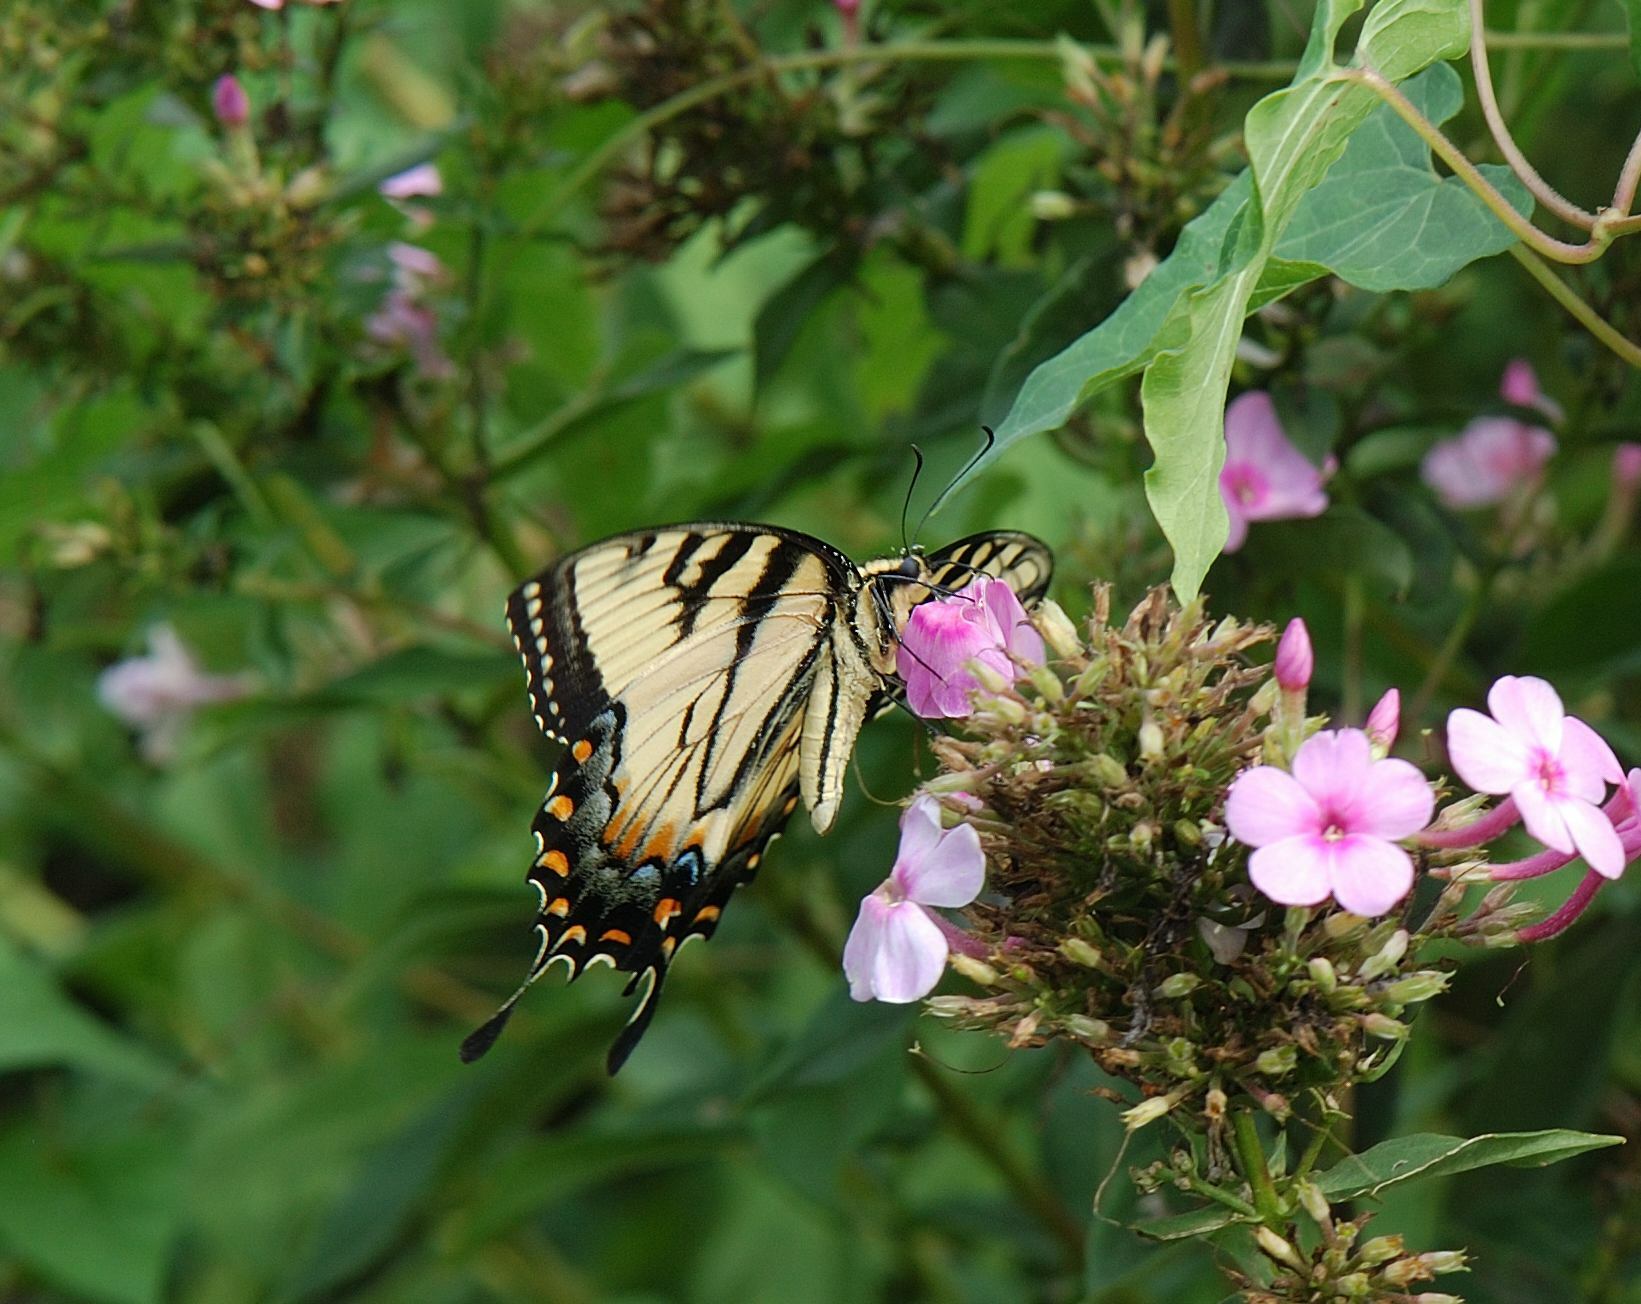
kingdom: Animalia
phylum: Arthropoda
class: Insecta
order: Lepidoptera
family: Papilionidae
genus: Papilio
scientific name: Papilio glaucus
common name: Tiger swallowtail
